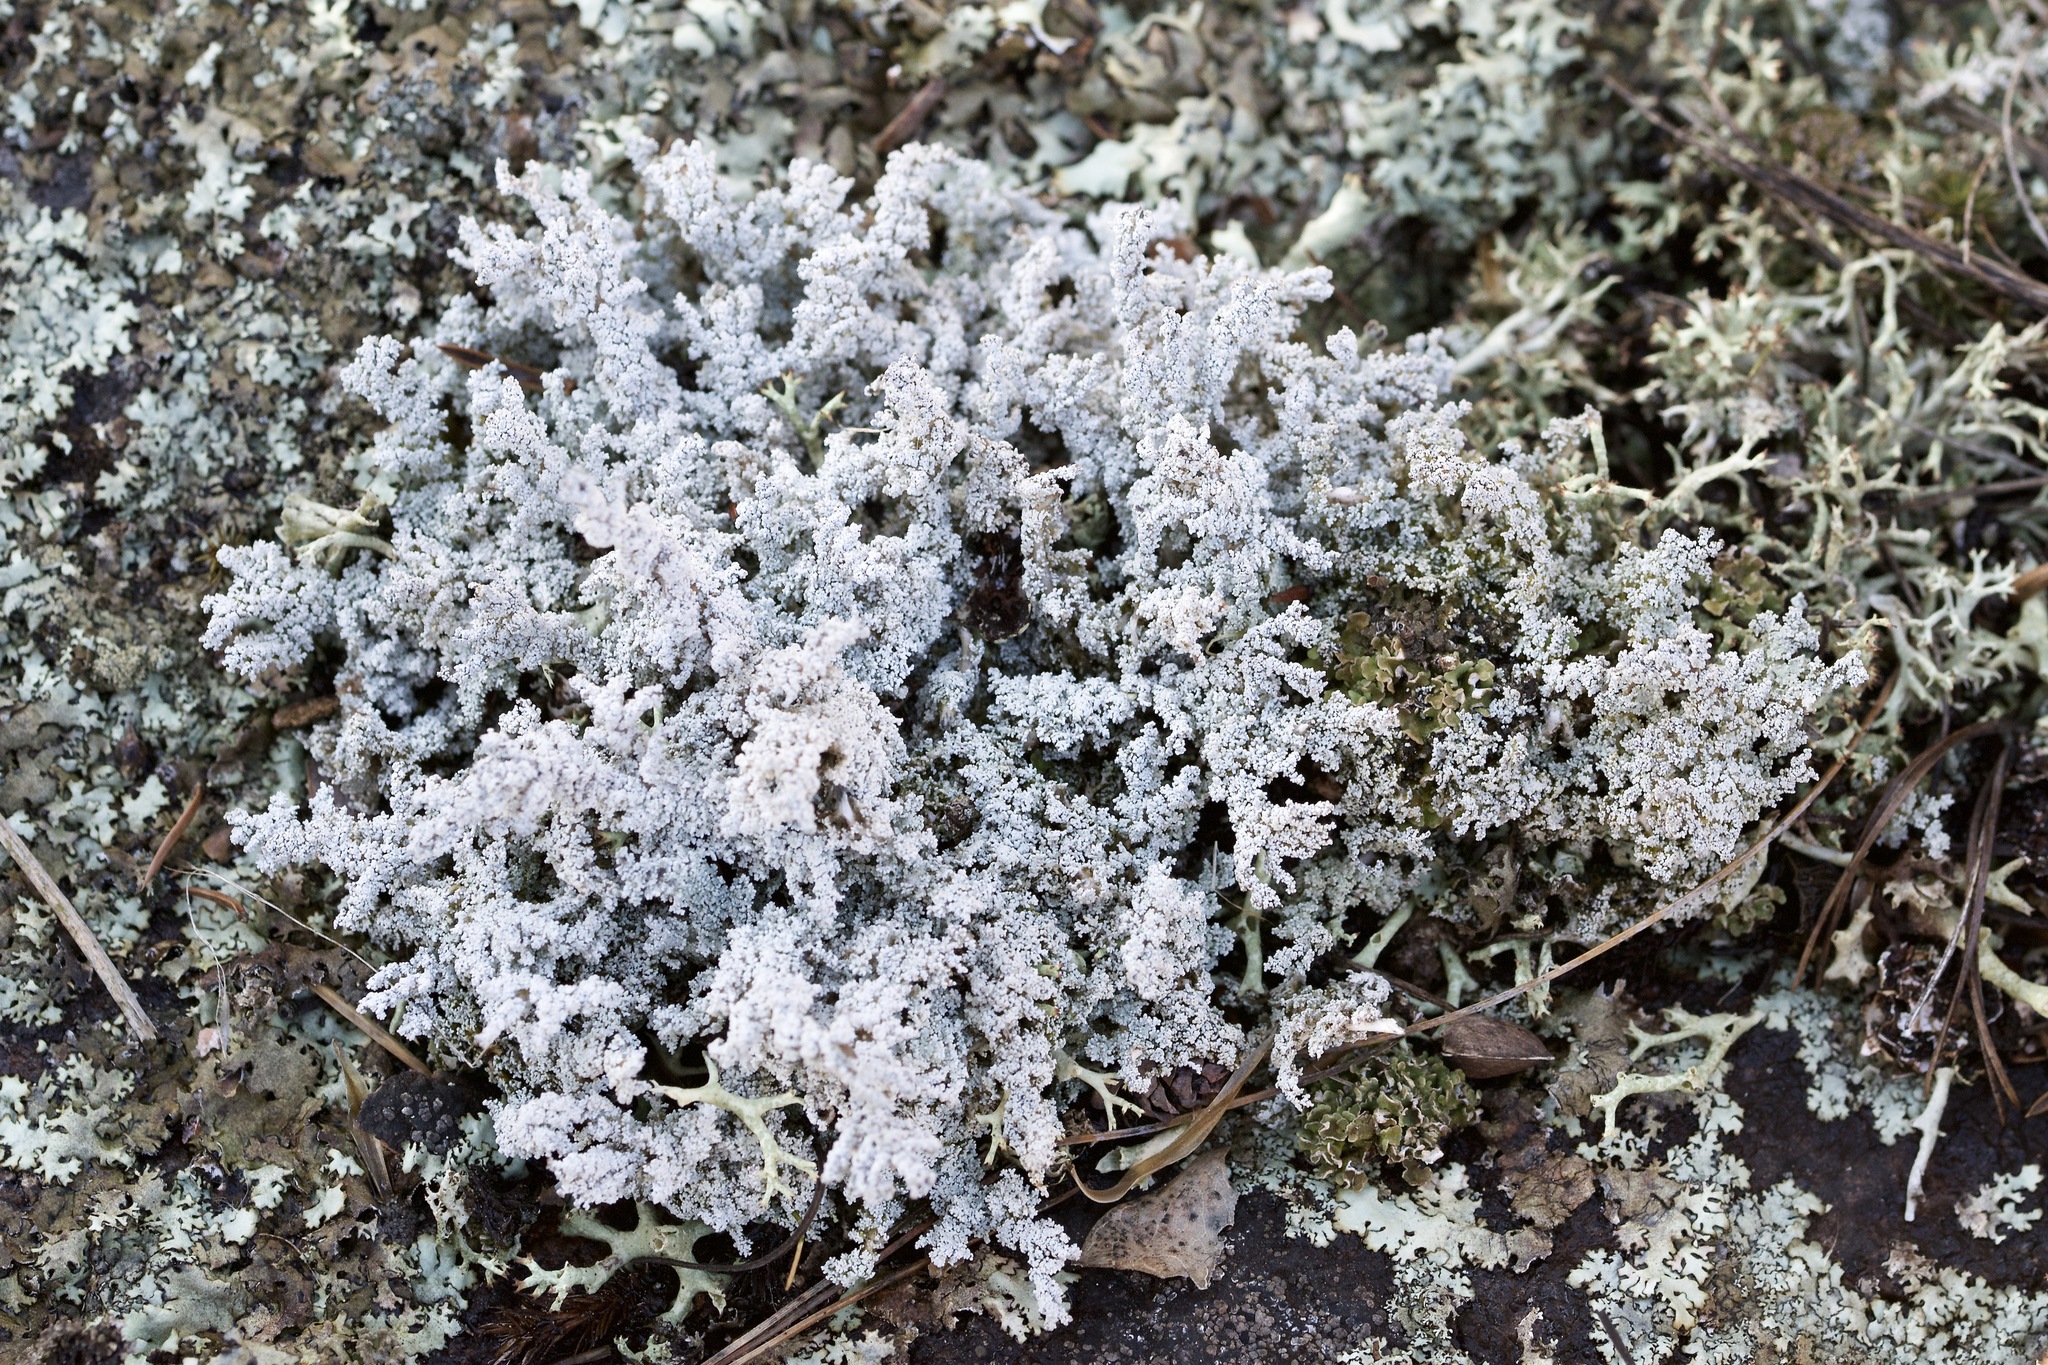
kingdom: Fungi
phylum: Ascomycota
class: Lecanoromycetes
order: Lecanorales
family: Stereocaulaceae
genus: Stereocaulon
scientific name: Stereocaulon saxatile
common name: Rock foam
